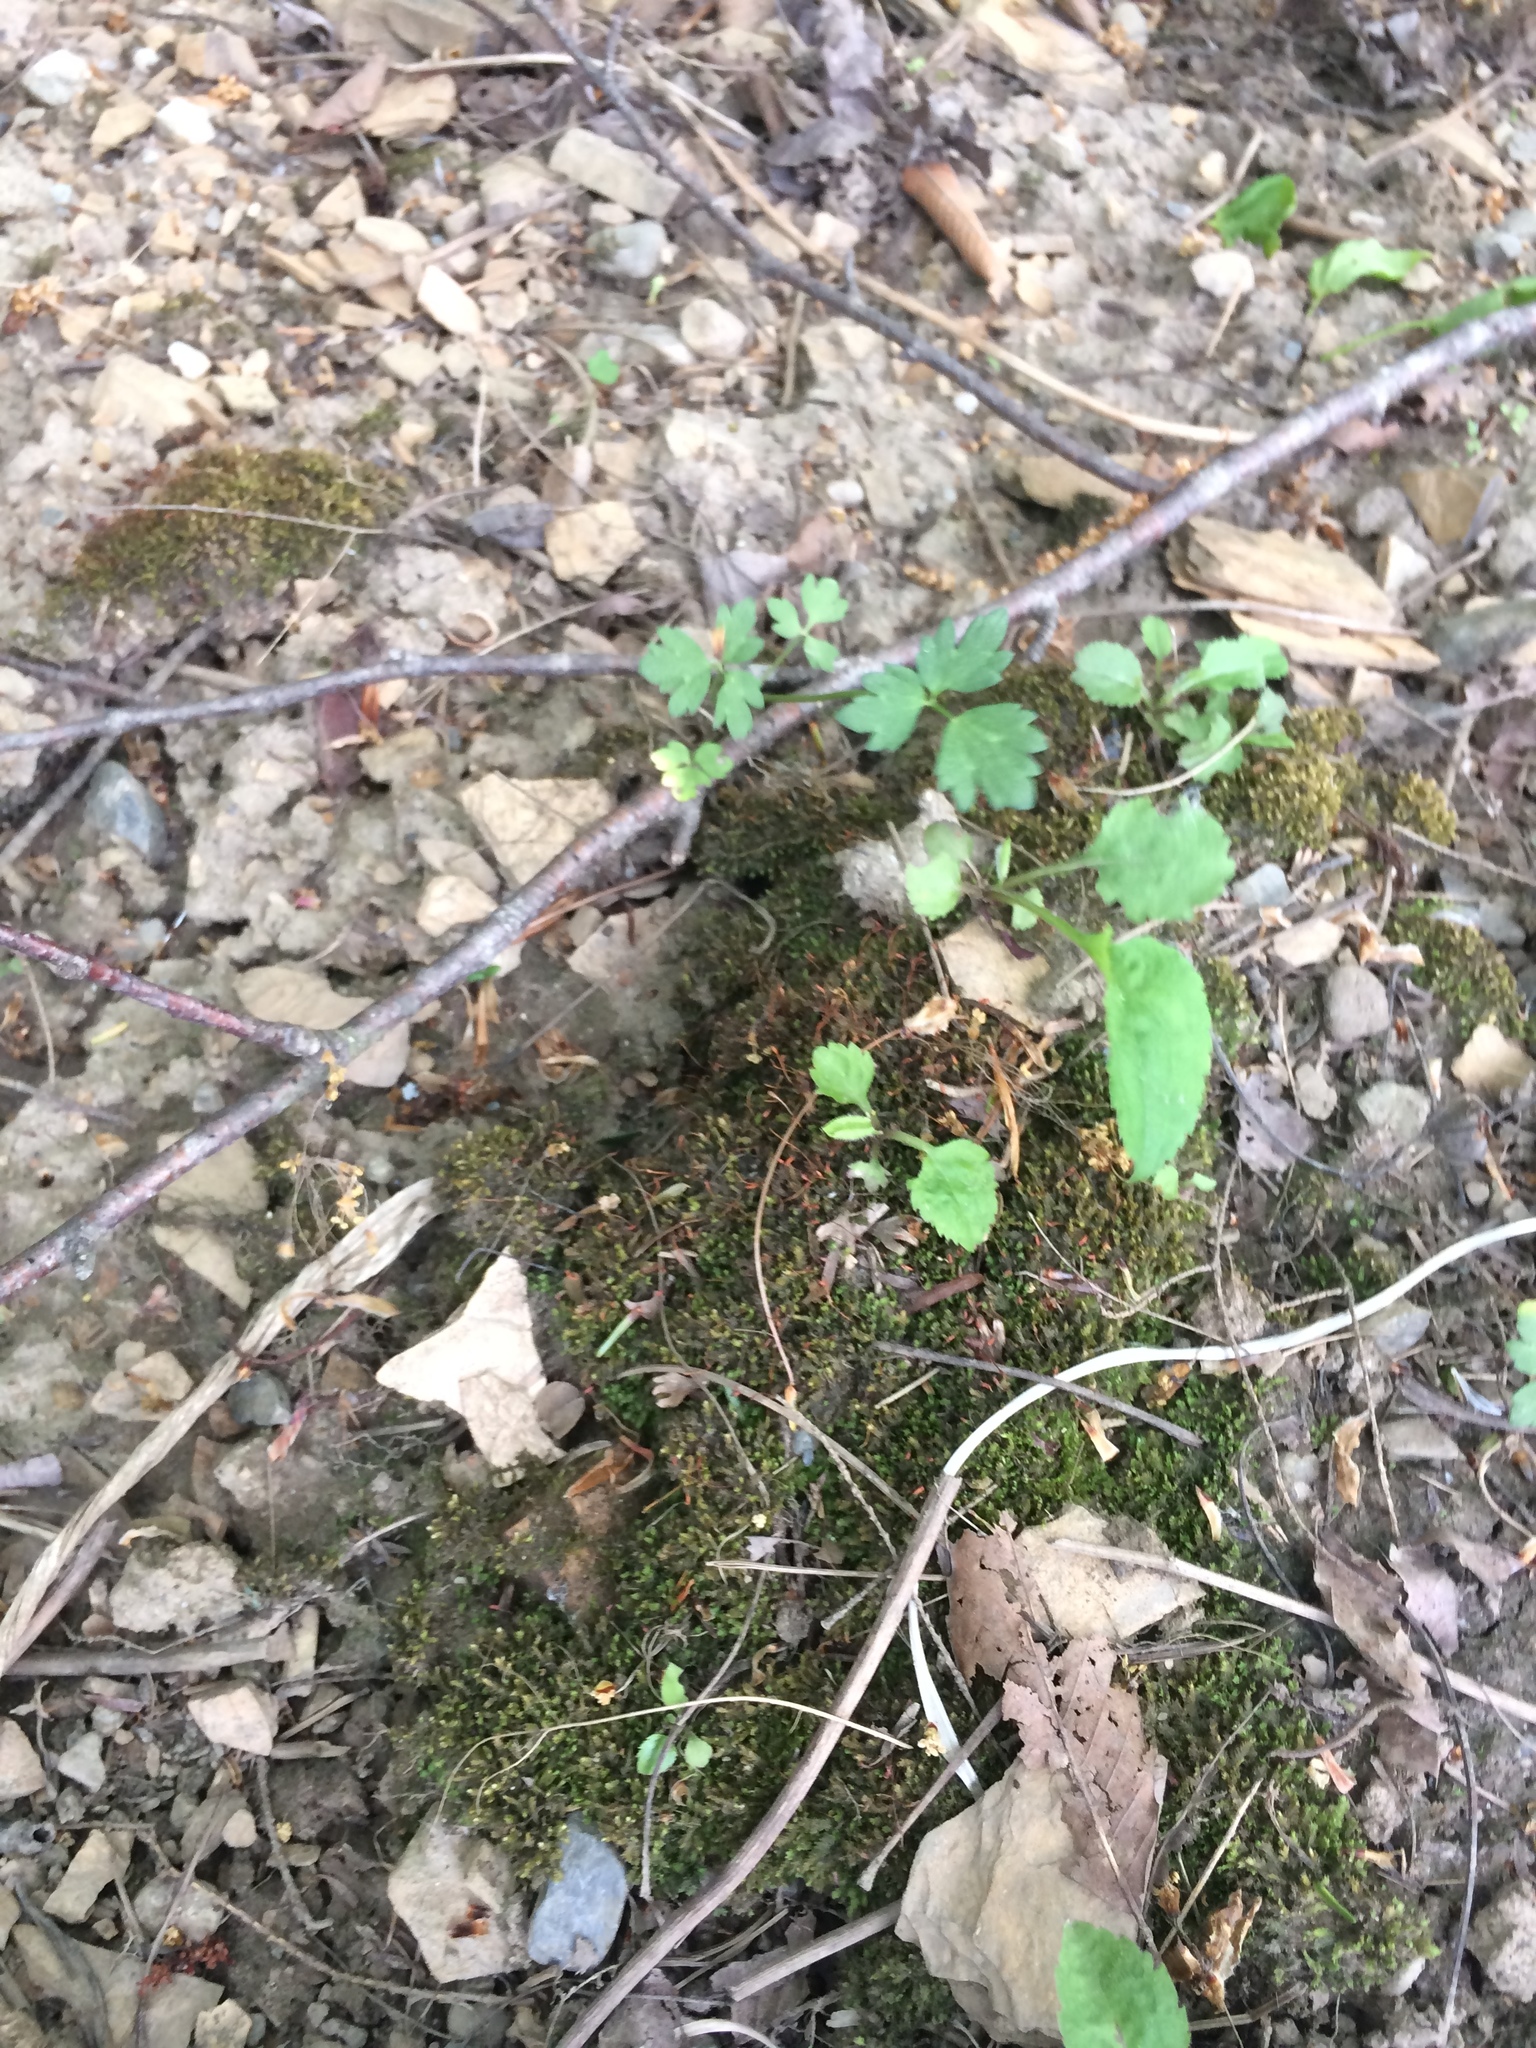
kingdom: Plantae
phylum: Bryophyta
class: Bryopsida
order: Dicranales
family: Fissidentaceae
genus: Fissidens
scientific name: Fissidens taxifolius
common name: Yew-leaved pocket moss
